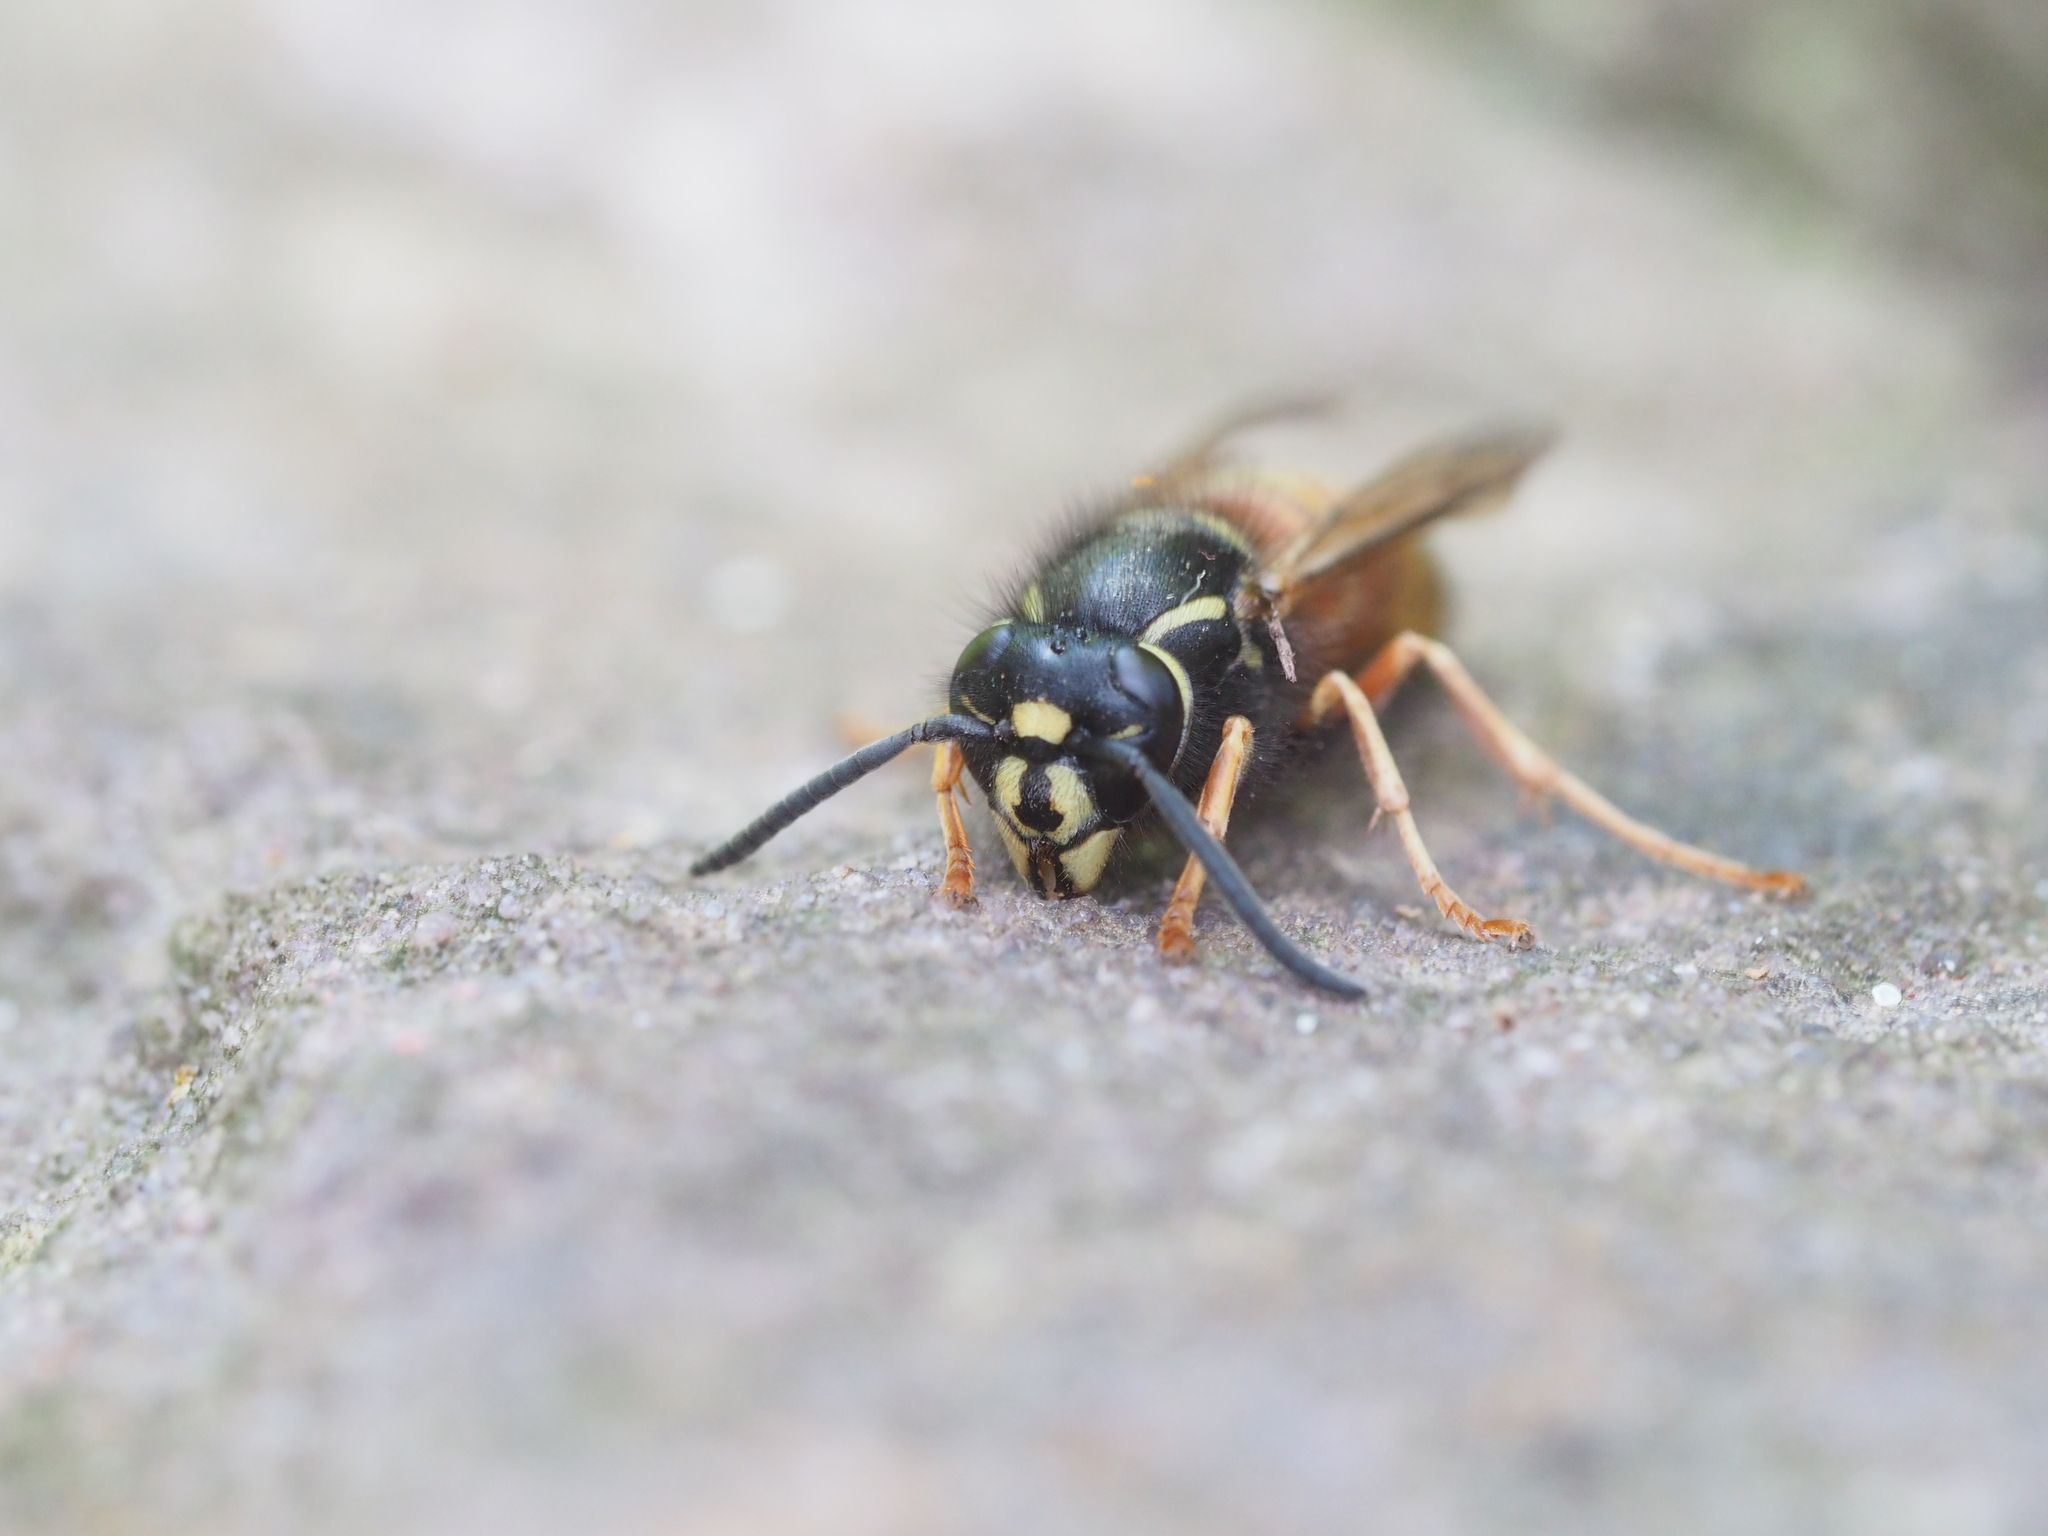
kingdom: Animalia
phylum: Arthropoda
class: Insecta
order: Hymenoptera
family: Vespidae
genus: Vespula
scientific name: Vespula rufa
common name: Red wasp
